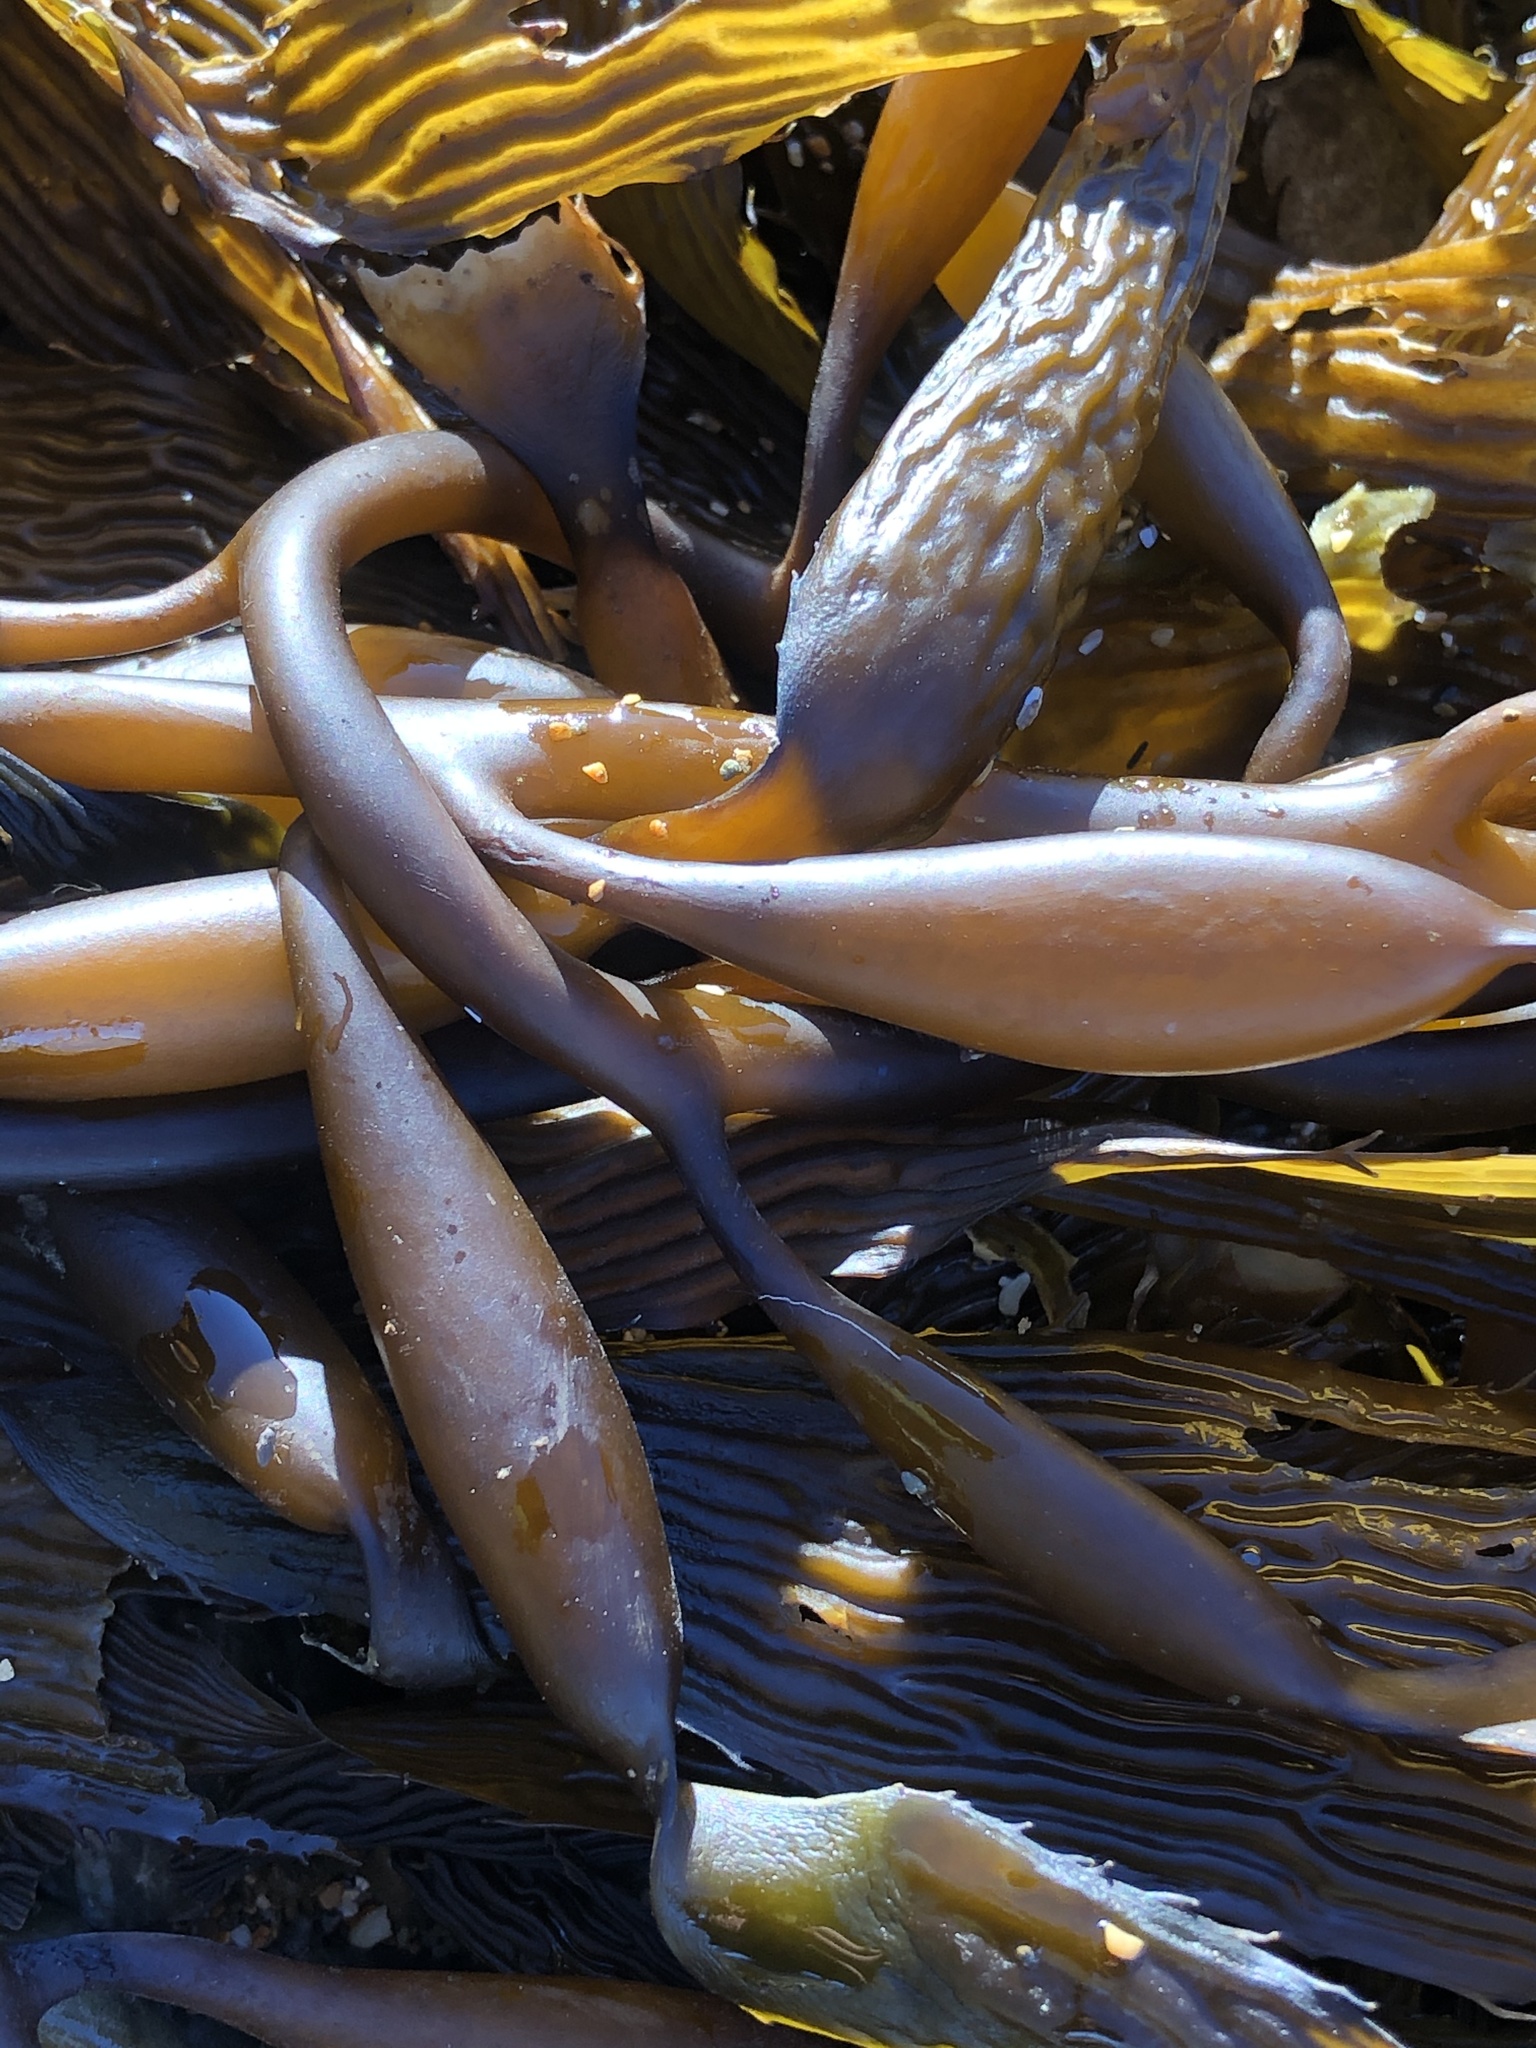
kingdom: Chromista
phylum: Ochrophyta
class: Phaeophyceae
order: Laminariales
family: Laminariaceae
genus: Macrocystis
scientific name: Macrocystis pyrifera
